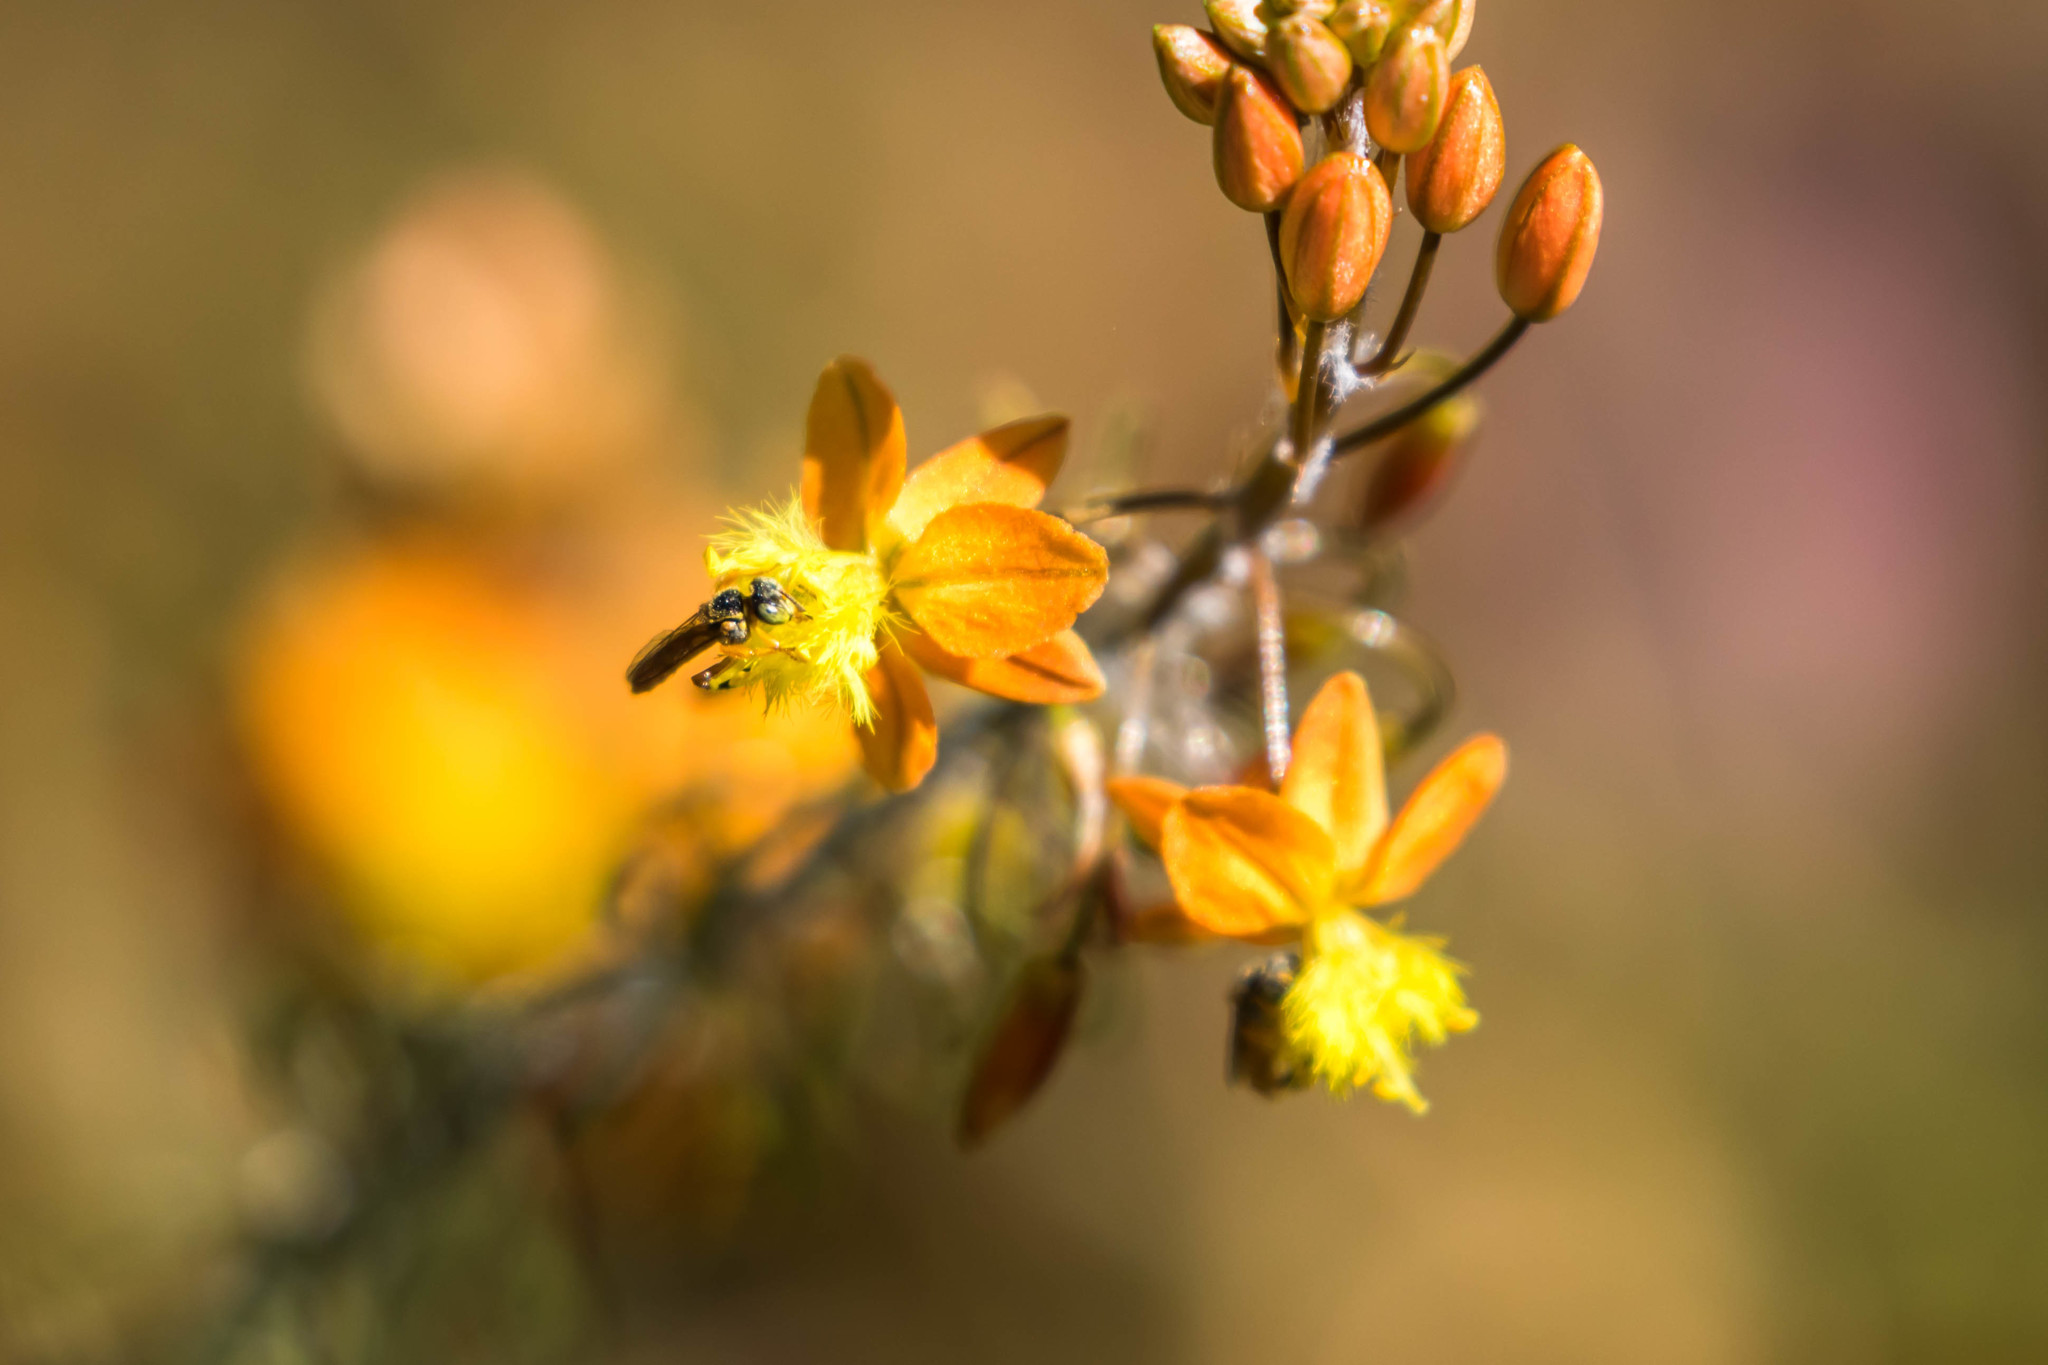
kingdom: Animalia
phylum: Arthropoda
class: Insecta
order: Hymenoptera
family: Apidae
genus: Tetragonisca
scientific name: Tetragonisca angustula
